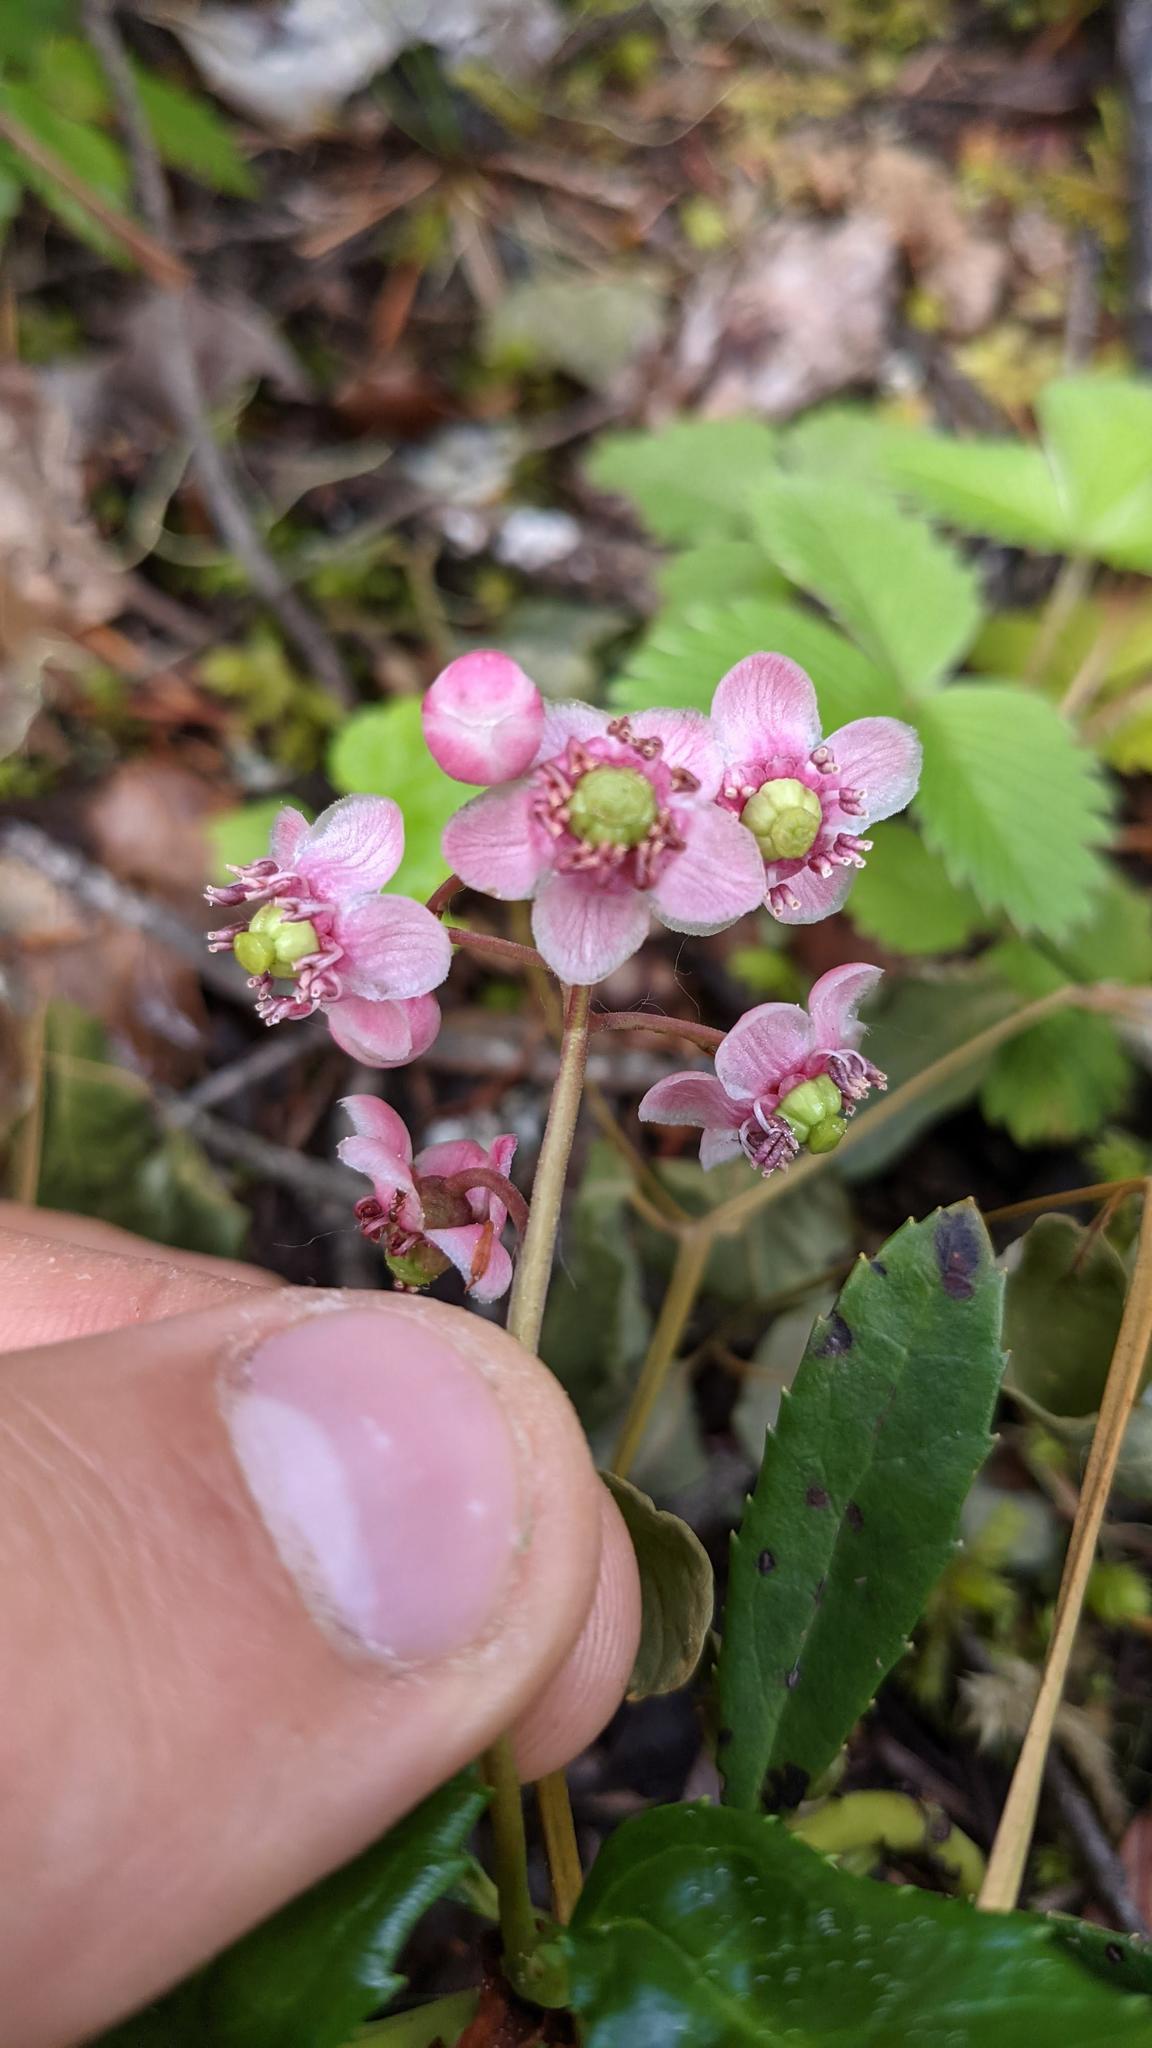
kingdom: Plantae
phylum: Tracheophyta
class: Magnoliopsida
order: Ericales
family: Ericaceae
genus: Chimaphila
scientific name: Chimaphila umbellata
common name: Pipsissewa
